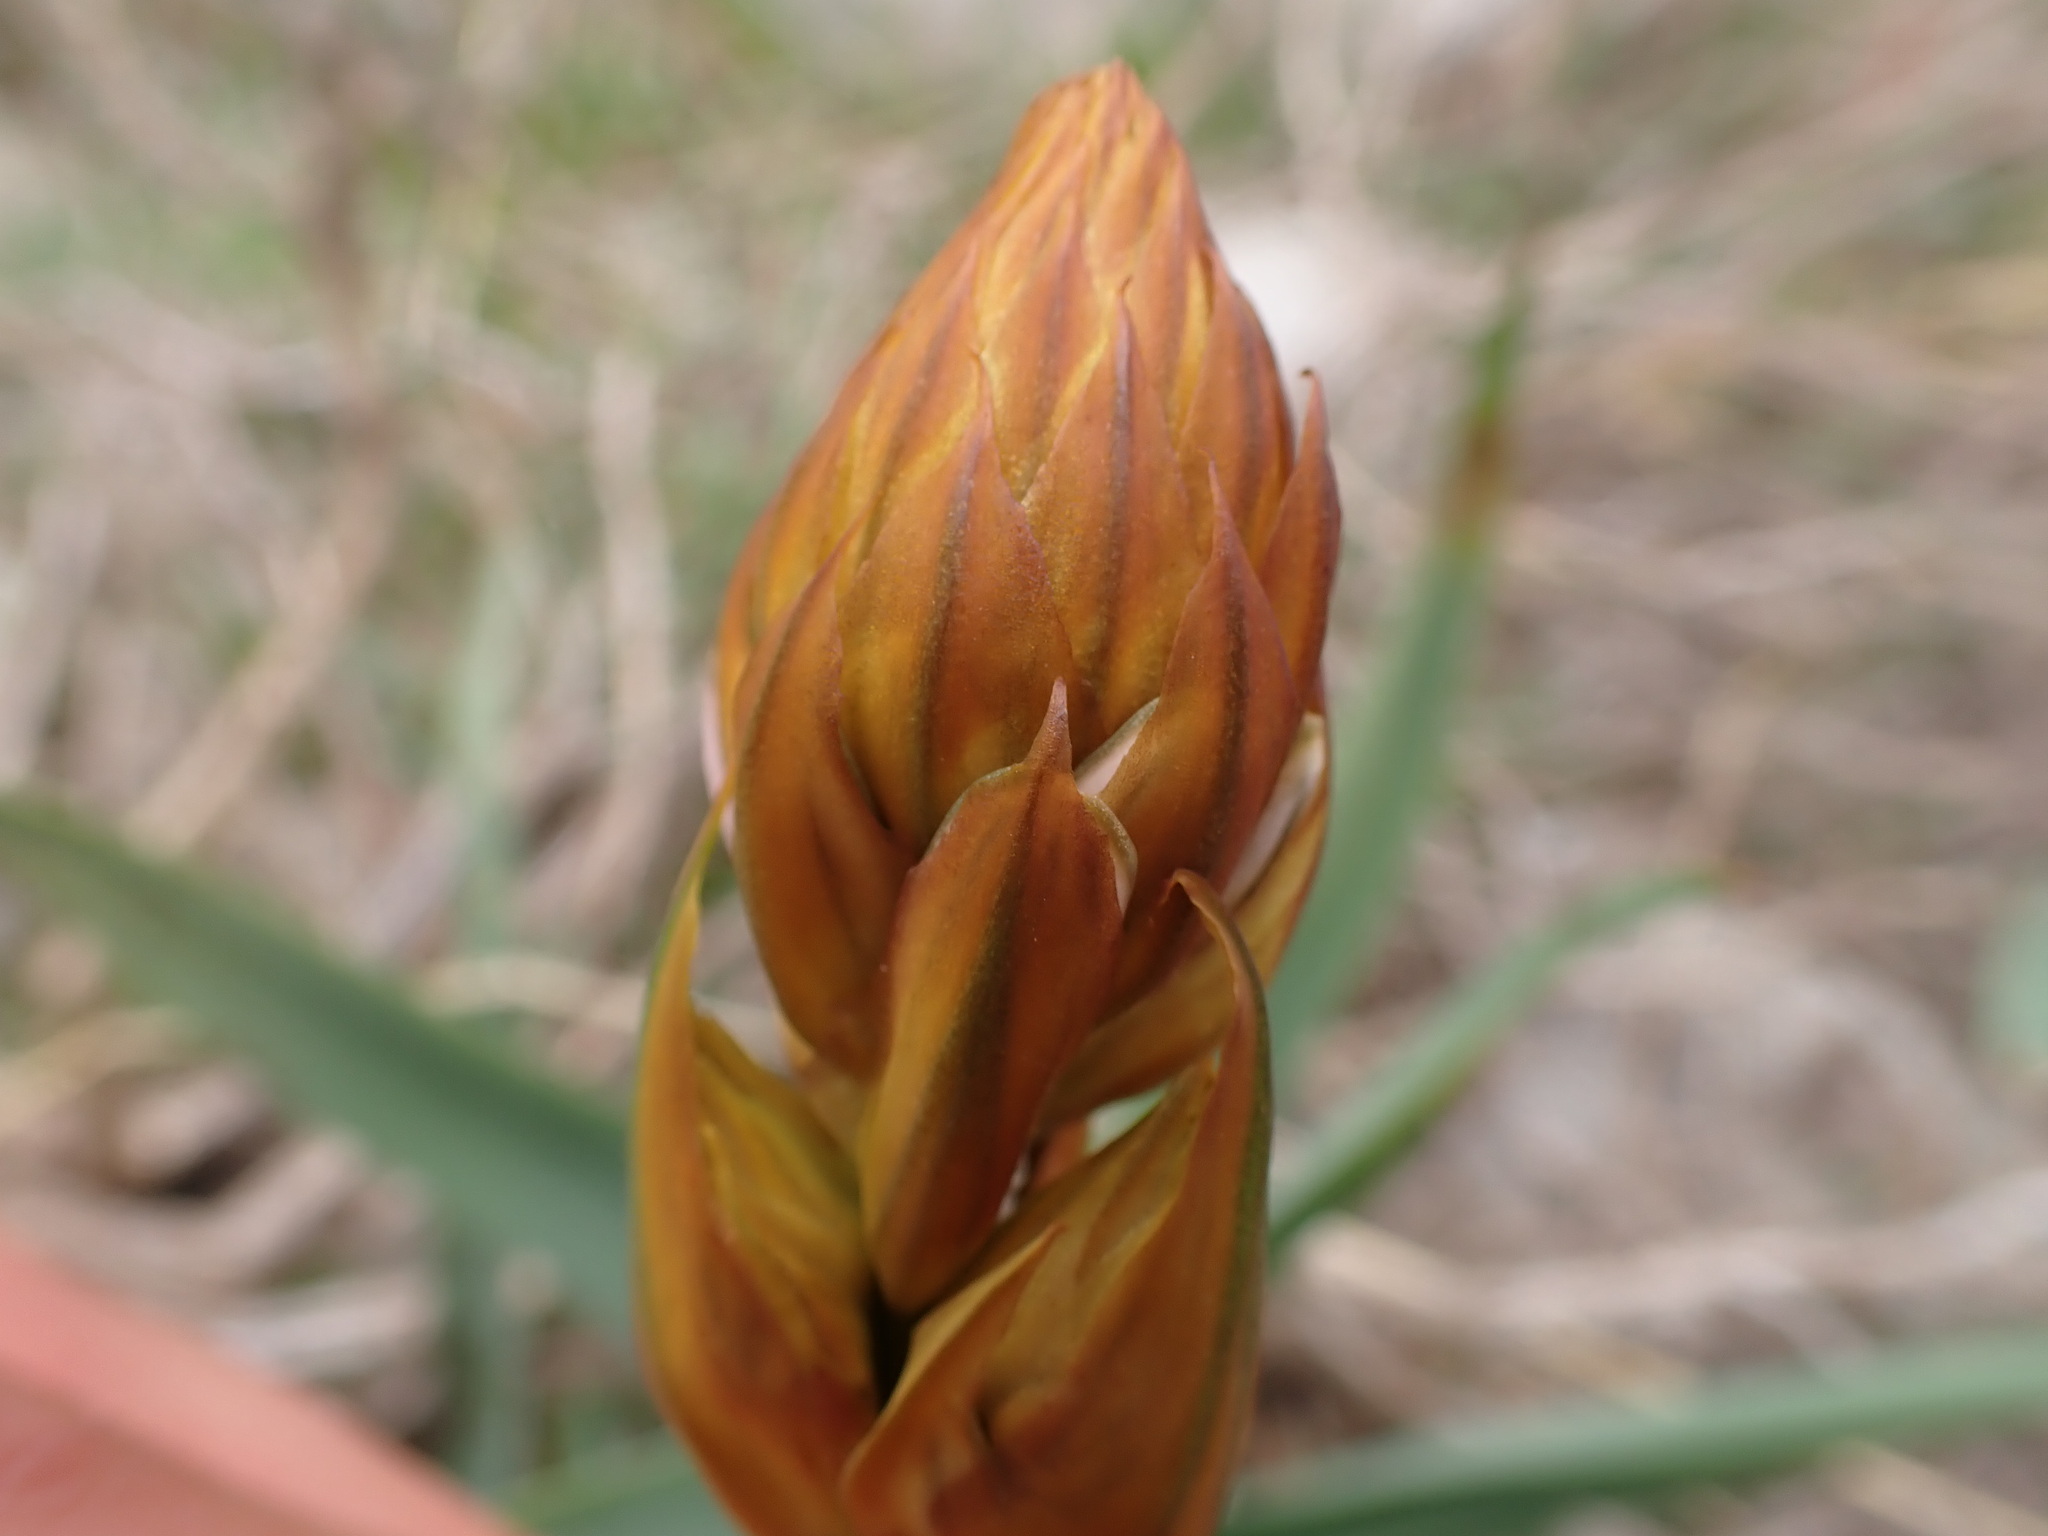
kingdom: Plantae
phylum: Tracheophyta
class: Liliopsida
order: Asparagales
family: Asphodelaceae
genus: Asphodelus
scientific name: Asphodelus cerasifer
